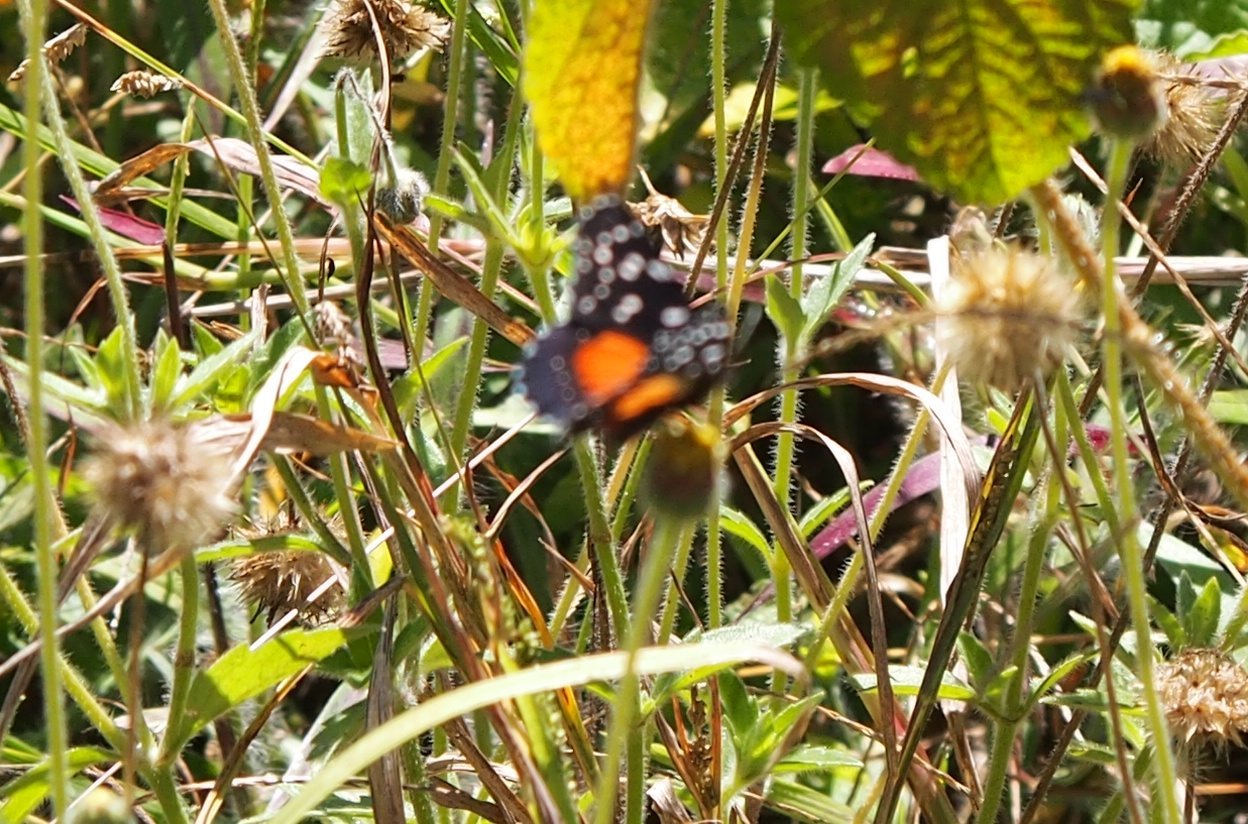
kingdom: Animalia
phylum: Arthropoda
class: Insecta
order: Lepidoptera
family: Nymphalidae
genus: Chlosyne
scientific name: Chlosyne janais
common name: Crimson patch
